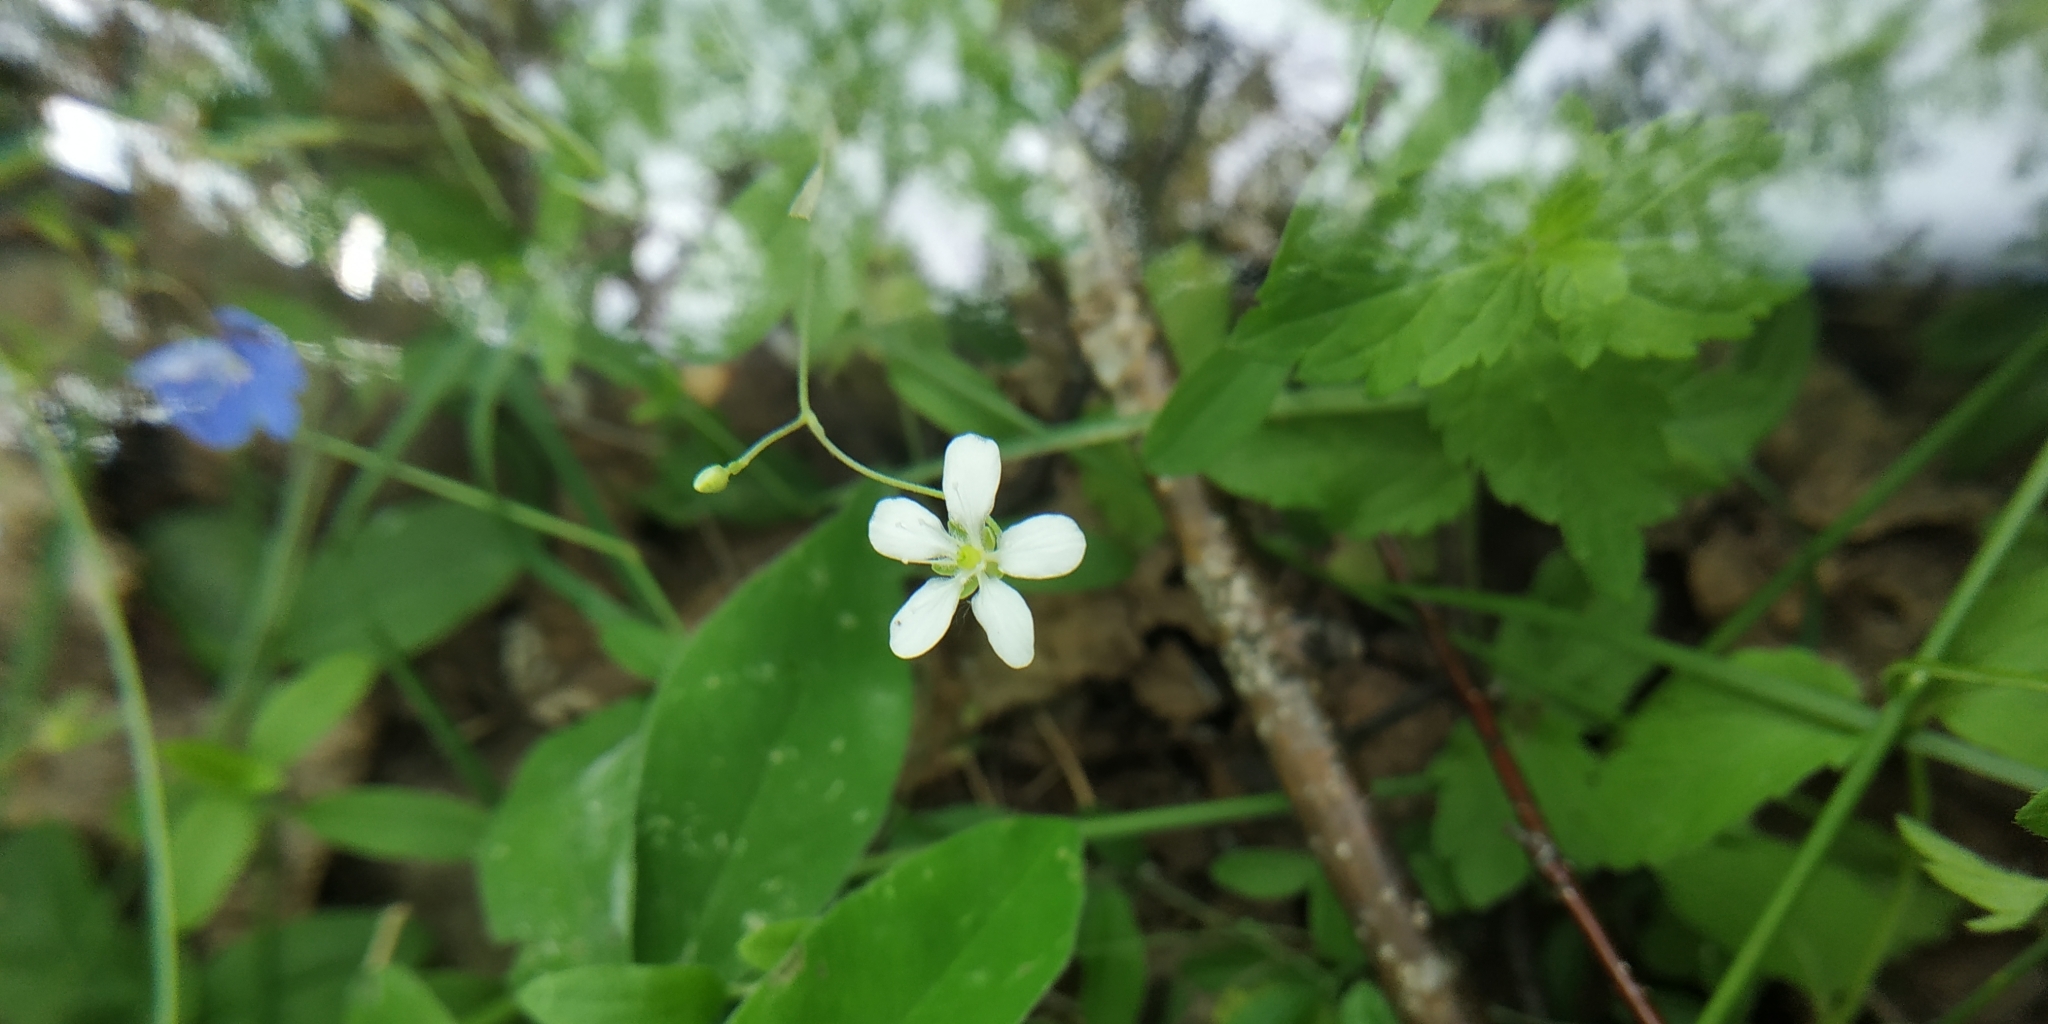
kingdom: Plantae
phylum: Tracheophyta
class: Magnoliopsida
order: Caryophyllales
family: Caryophyllaceae
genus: Moehringia
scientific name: Moehringia lateriflora
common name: Blunt-leaved sandwort
